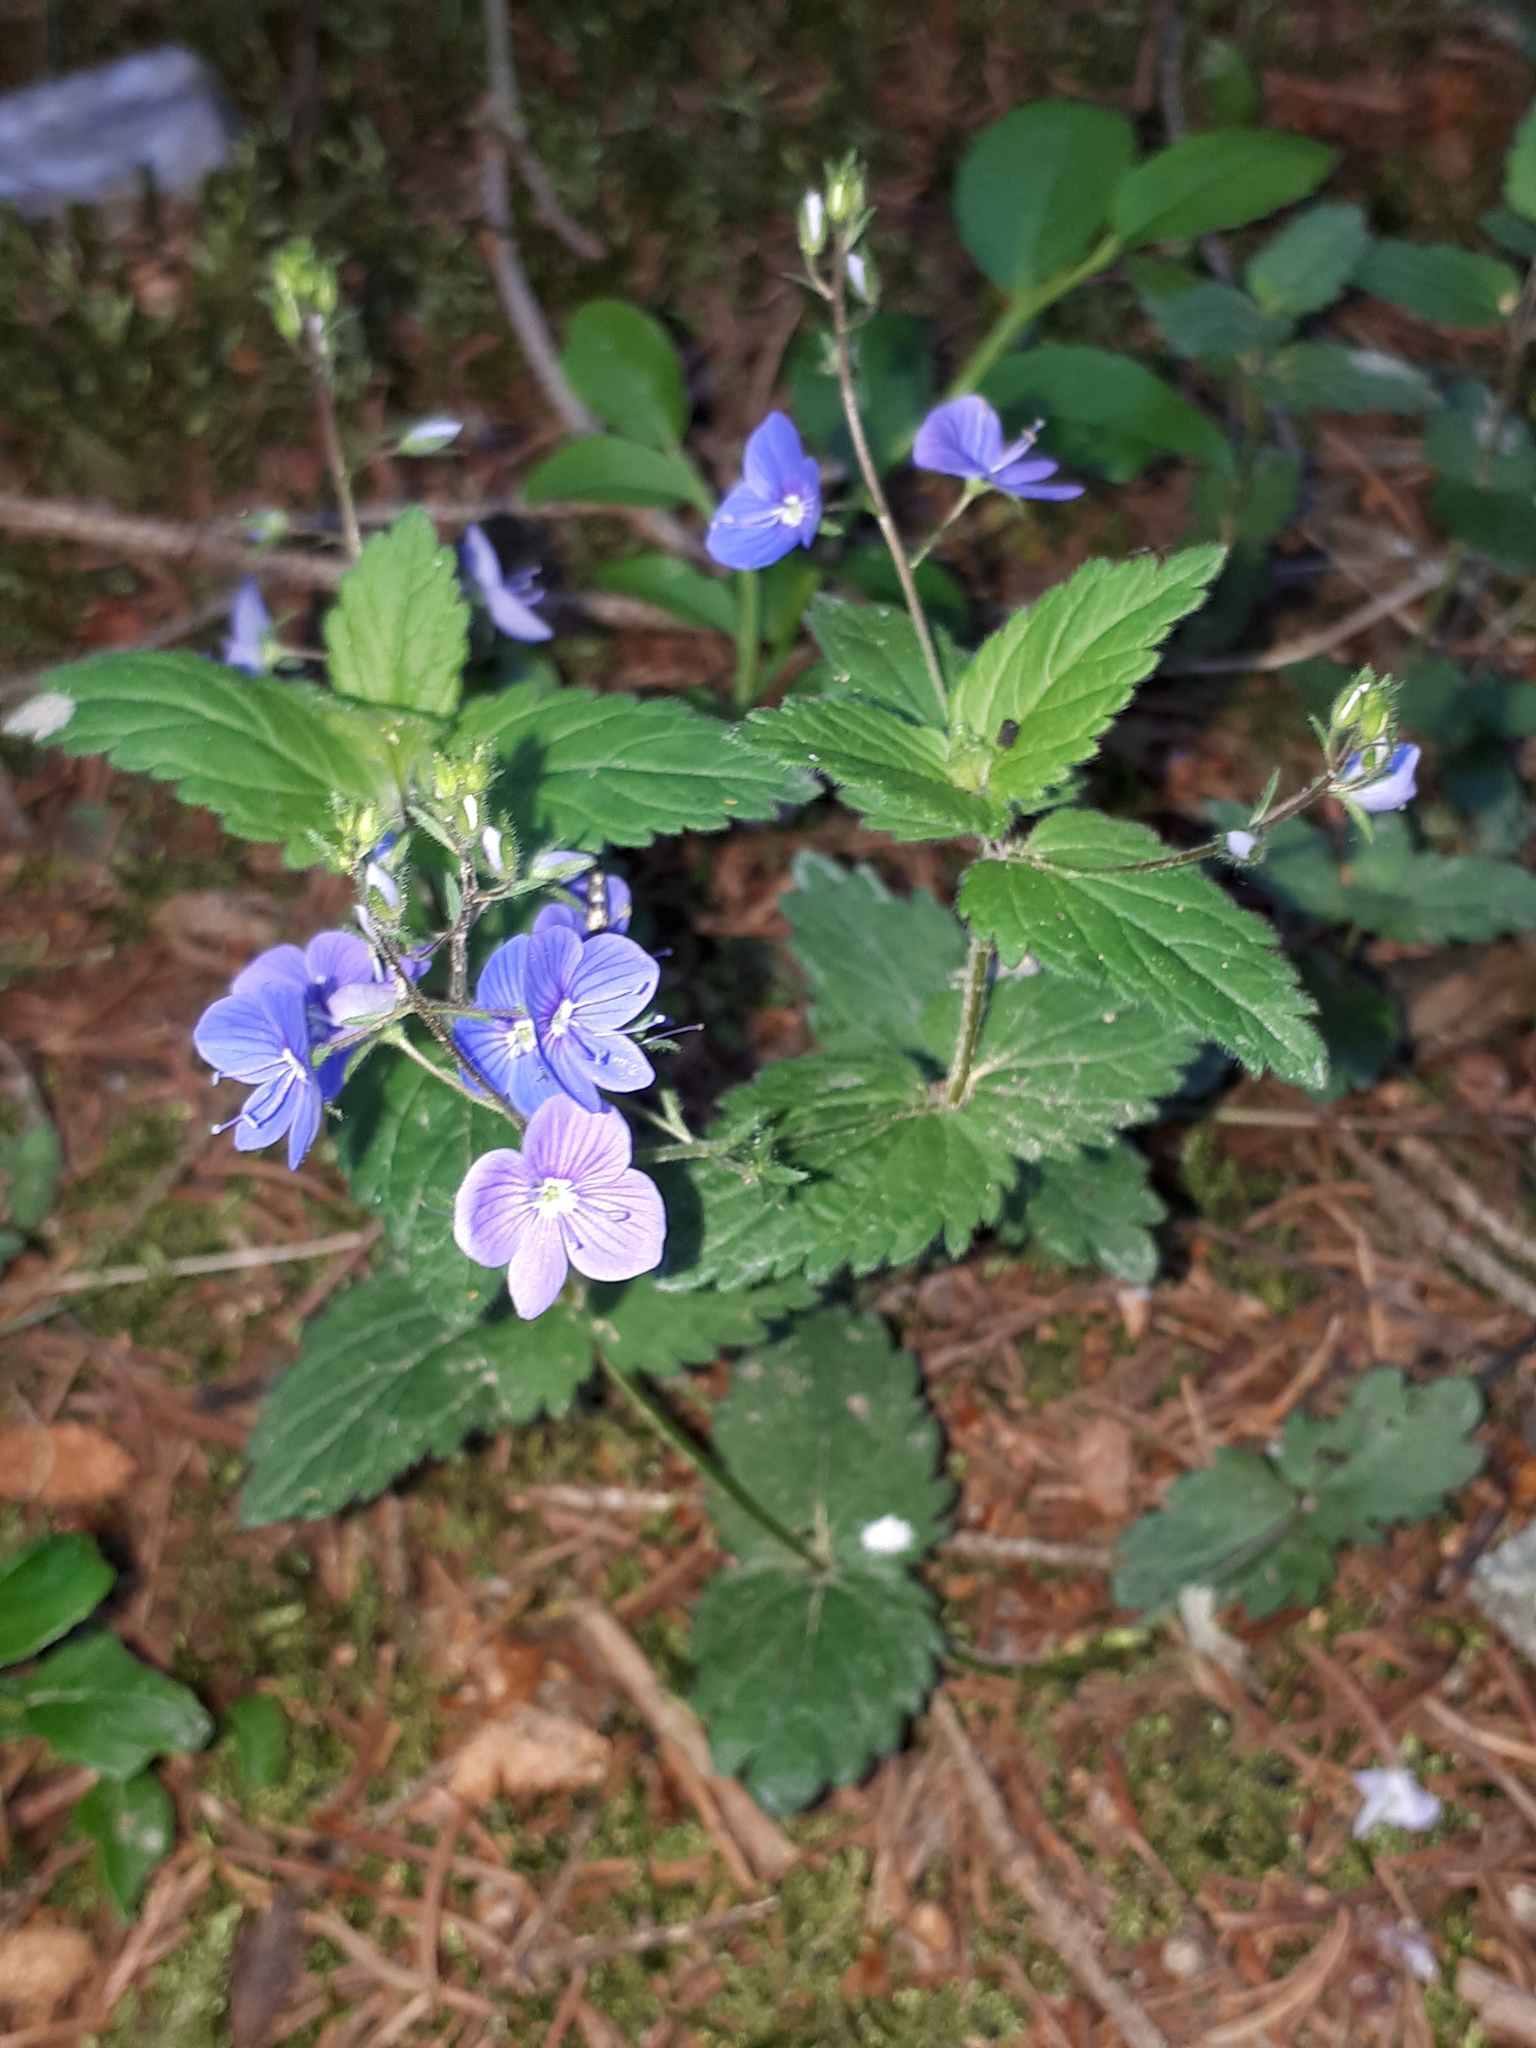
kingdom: Plantae
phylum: Tracheophyta
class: Magnoliopsida
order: Lamiales
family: Plantaginaceae
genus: Veronica
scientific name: Veronica chamaedrys
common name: Germander speedwell
